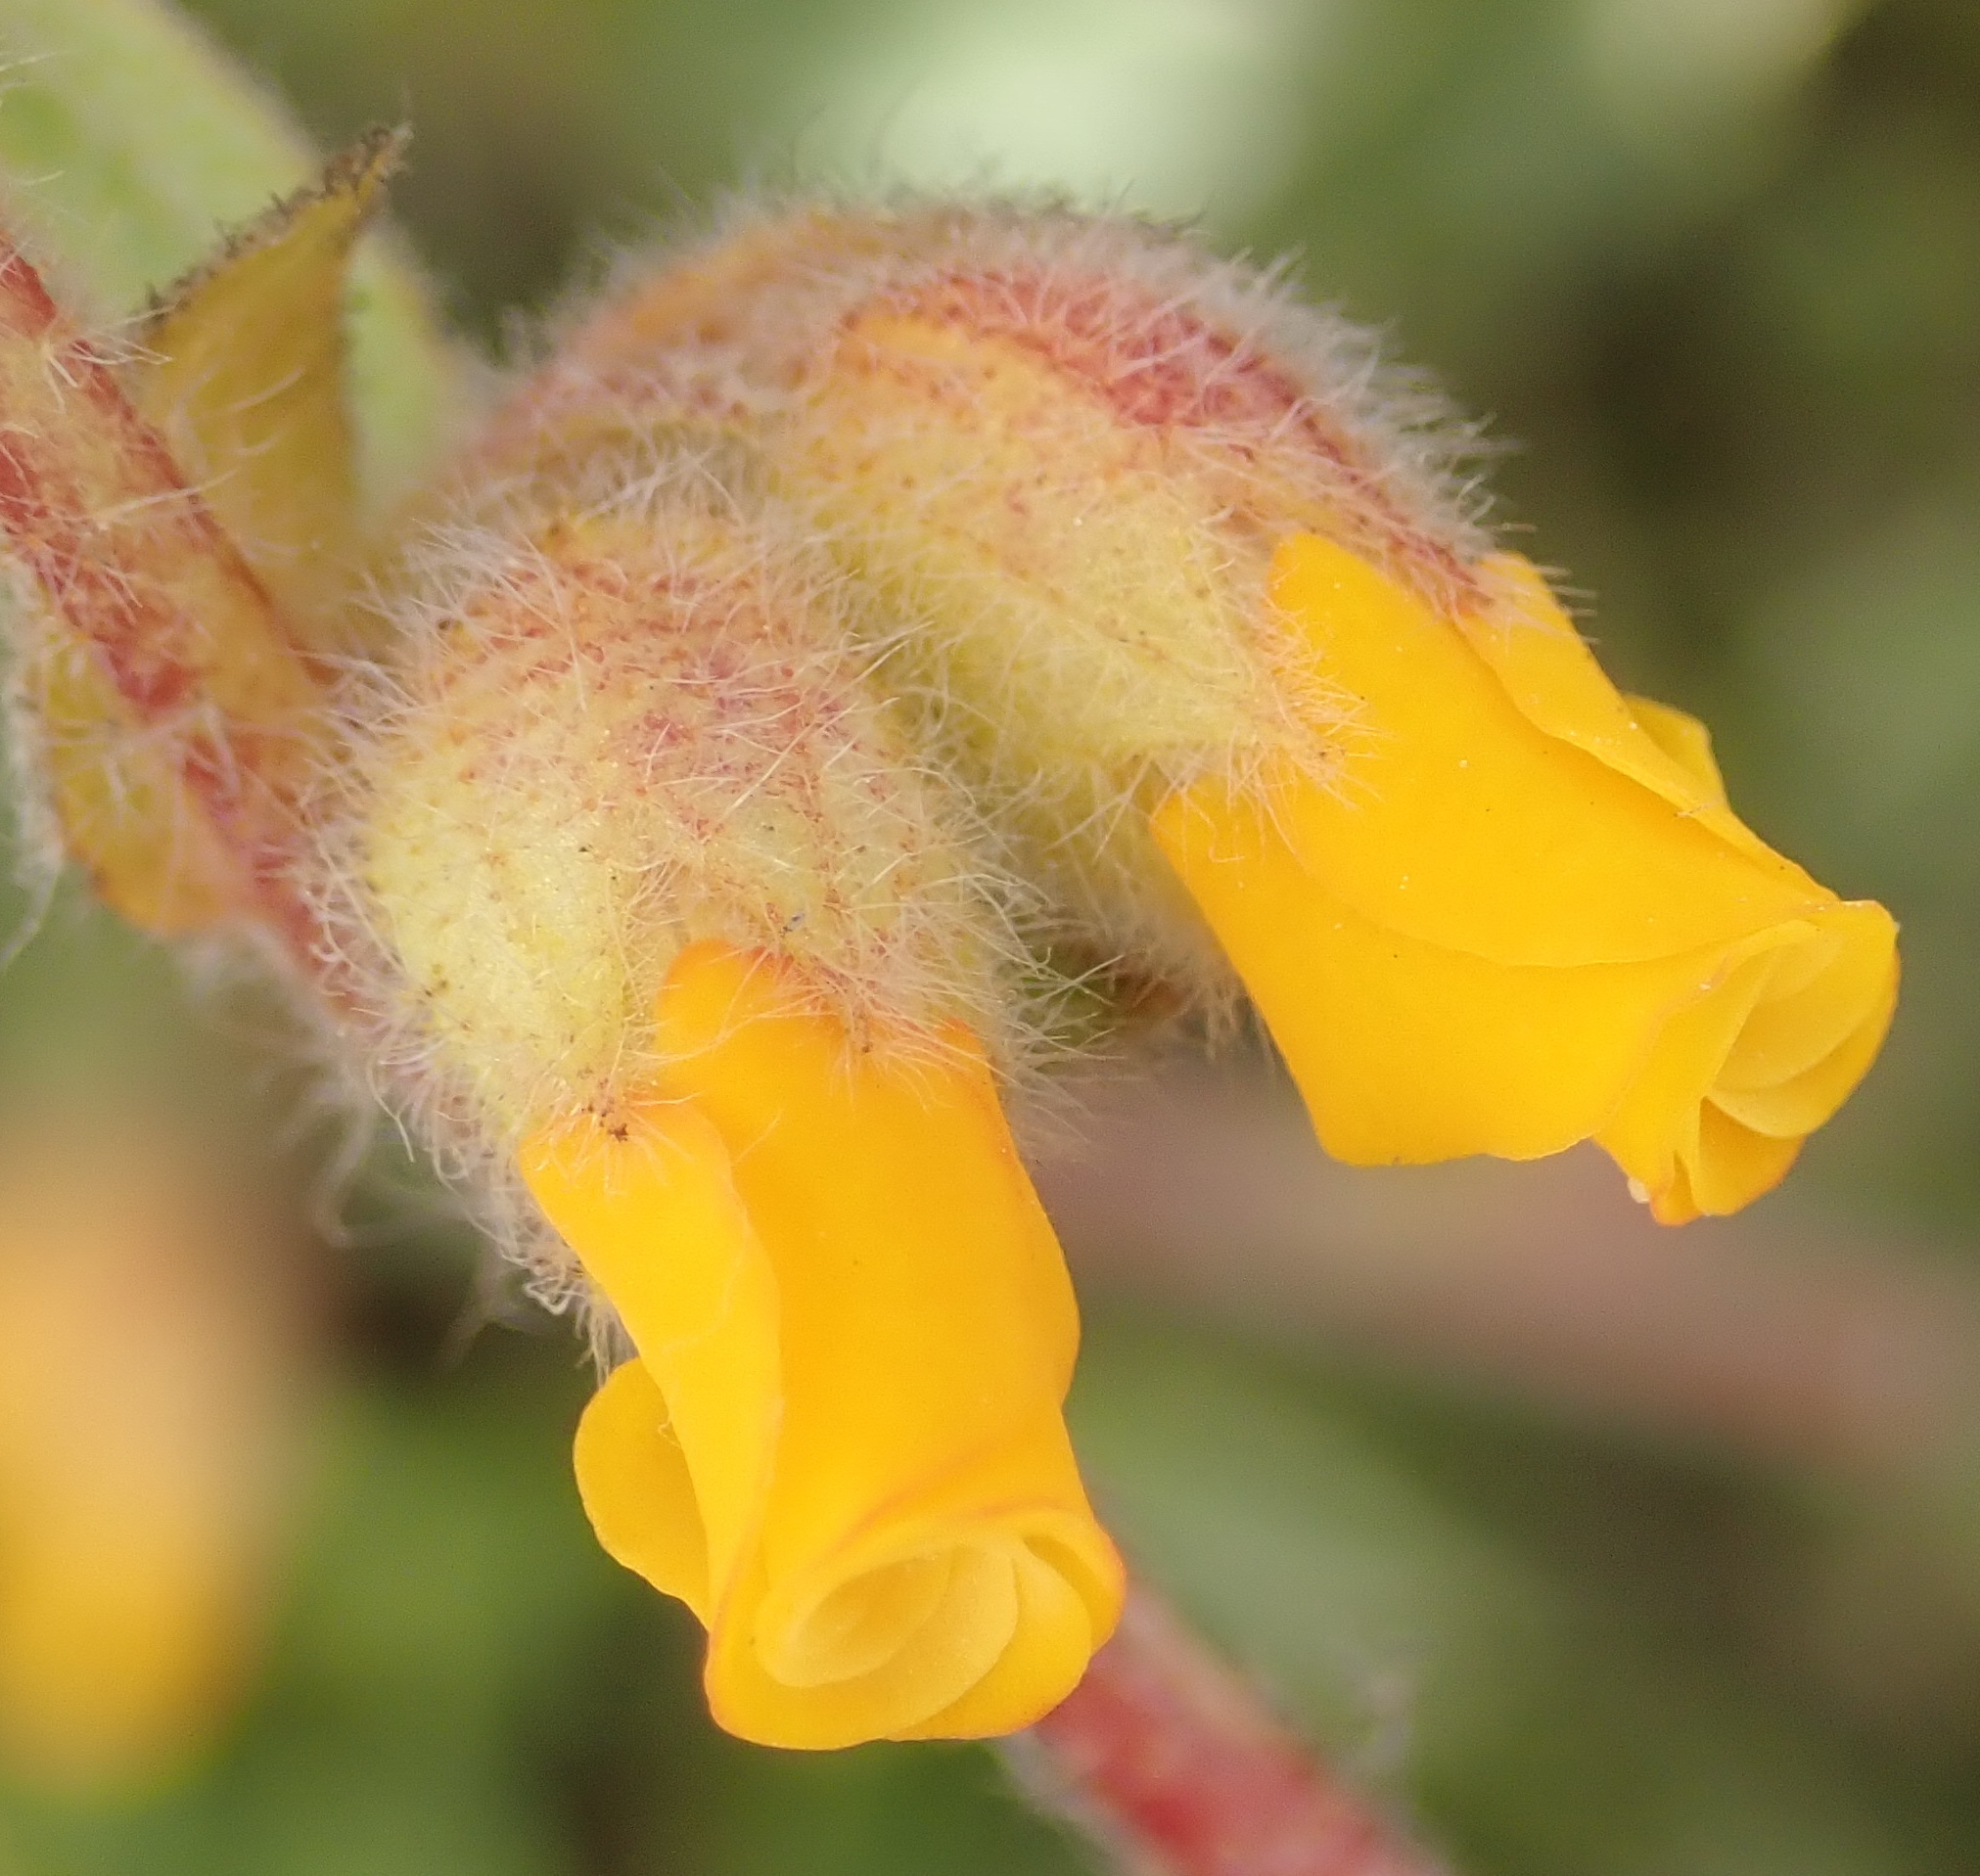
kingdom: Plantae
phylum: Tracheophyta
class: Magnoliopsida
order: Malvales
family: Malvaceae
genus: Hermannia
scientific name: Hermannia decumbens
